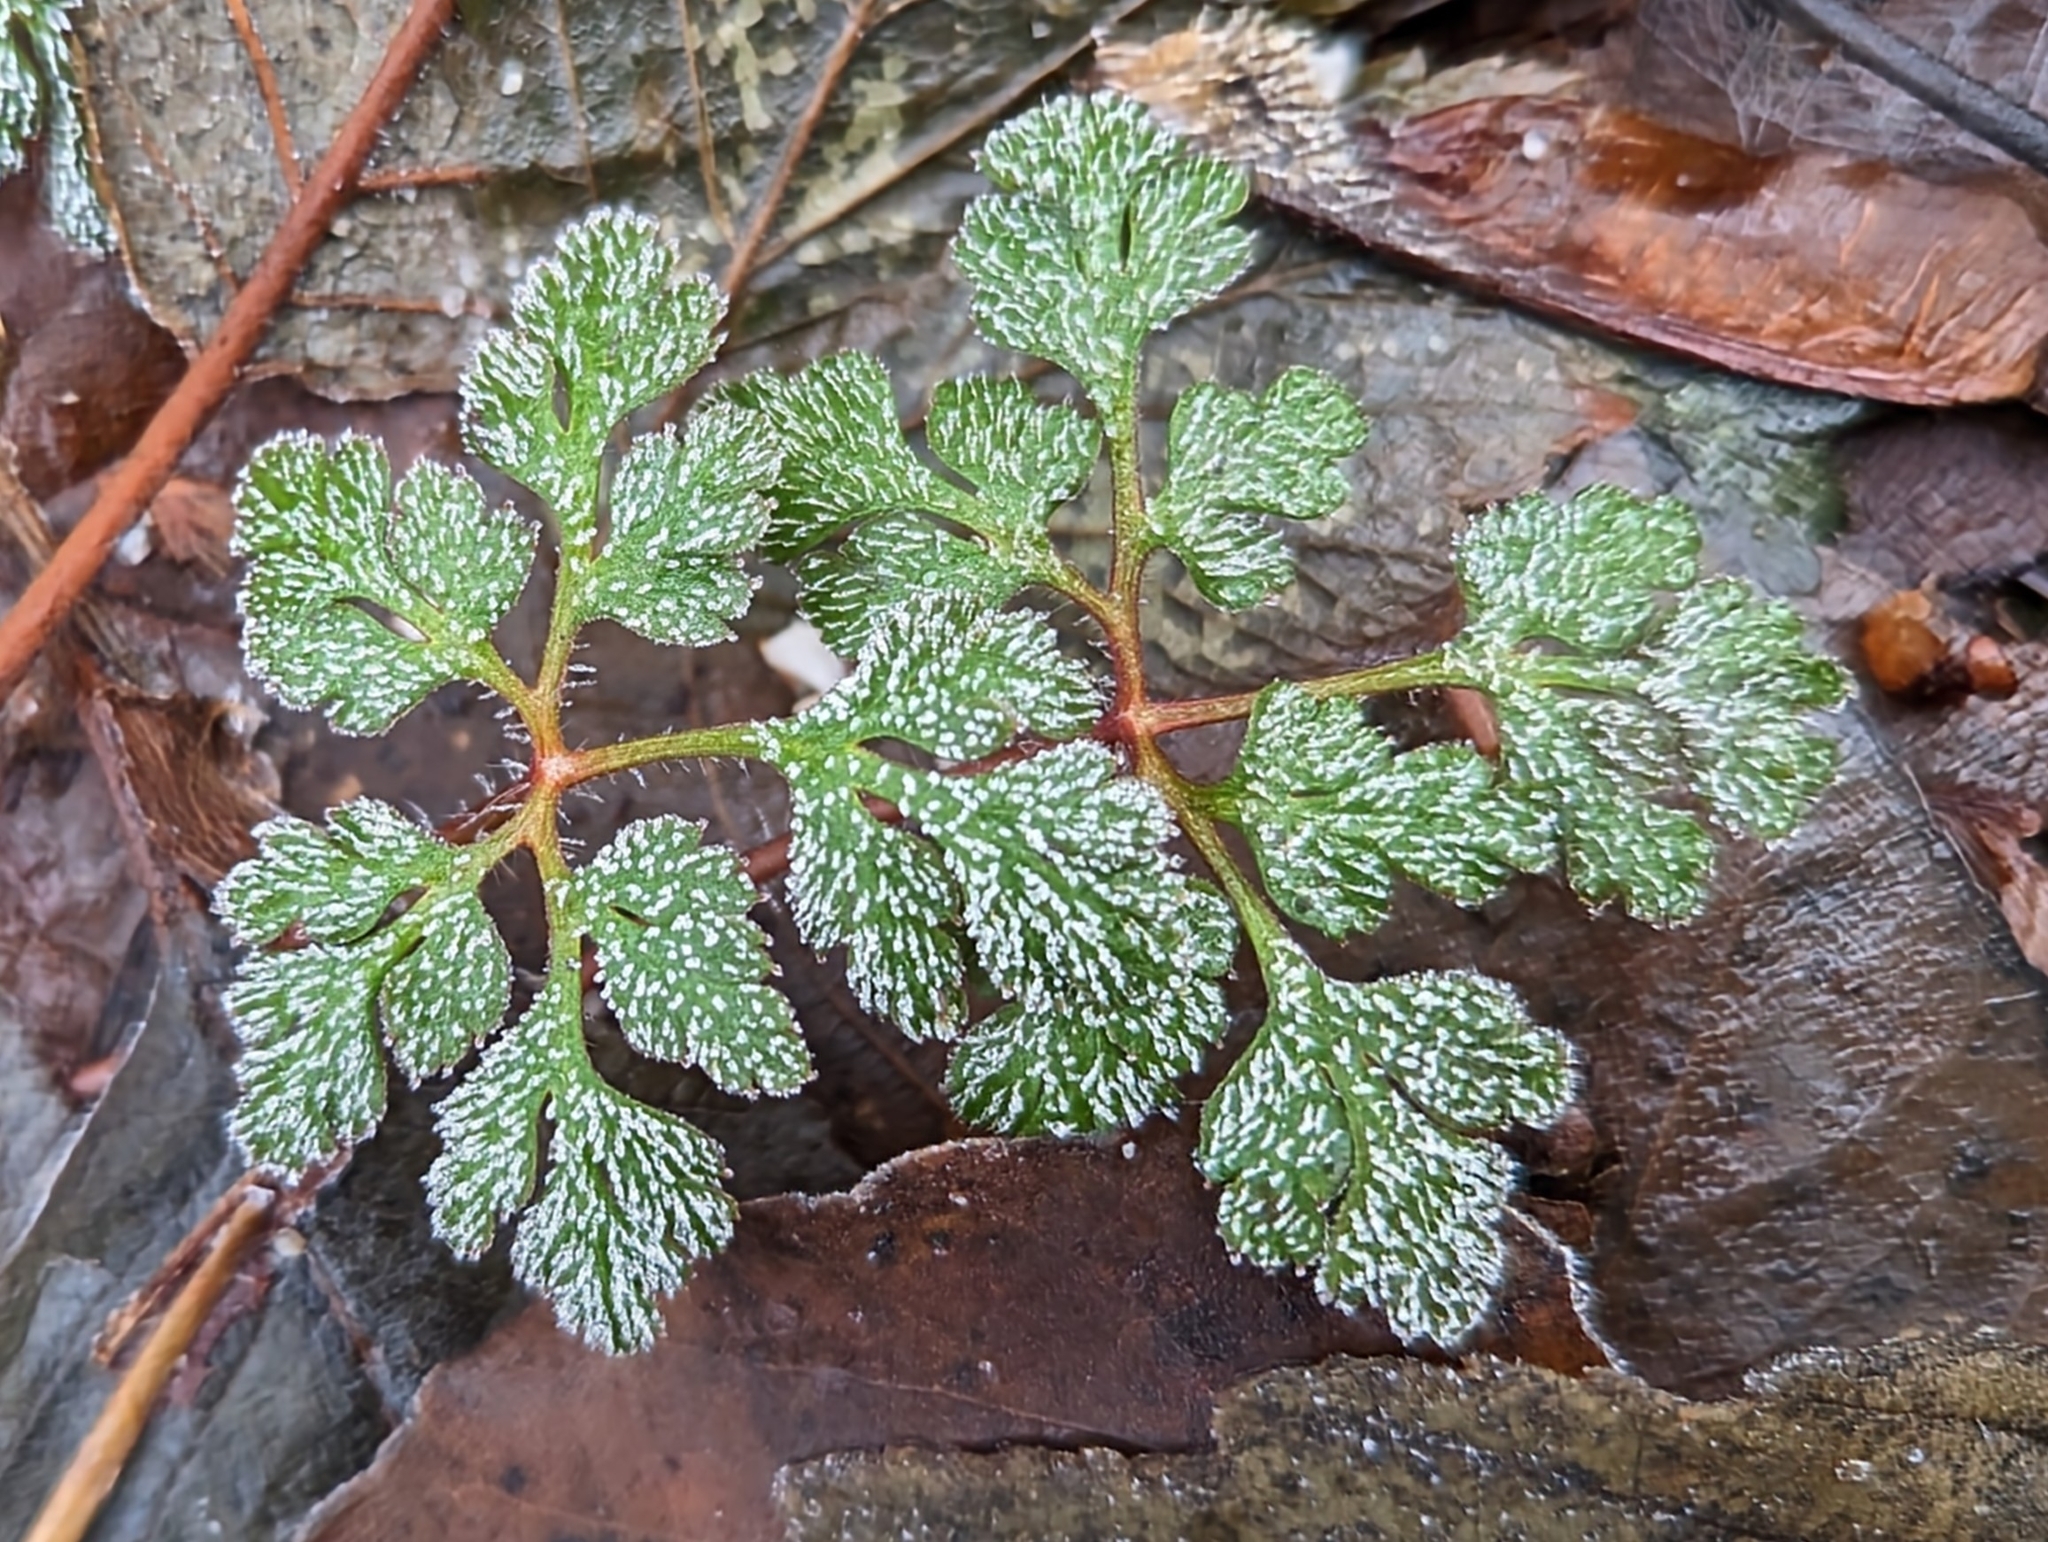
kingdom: Plantae
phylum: Tracheophyta
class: Magnoliopsida
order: Geraniales
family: Geraniaceae
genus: Geranium
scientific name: Geranium robertianum
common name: Herb-robert
